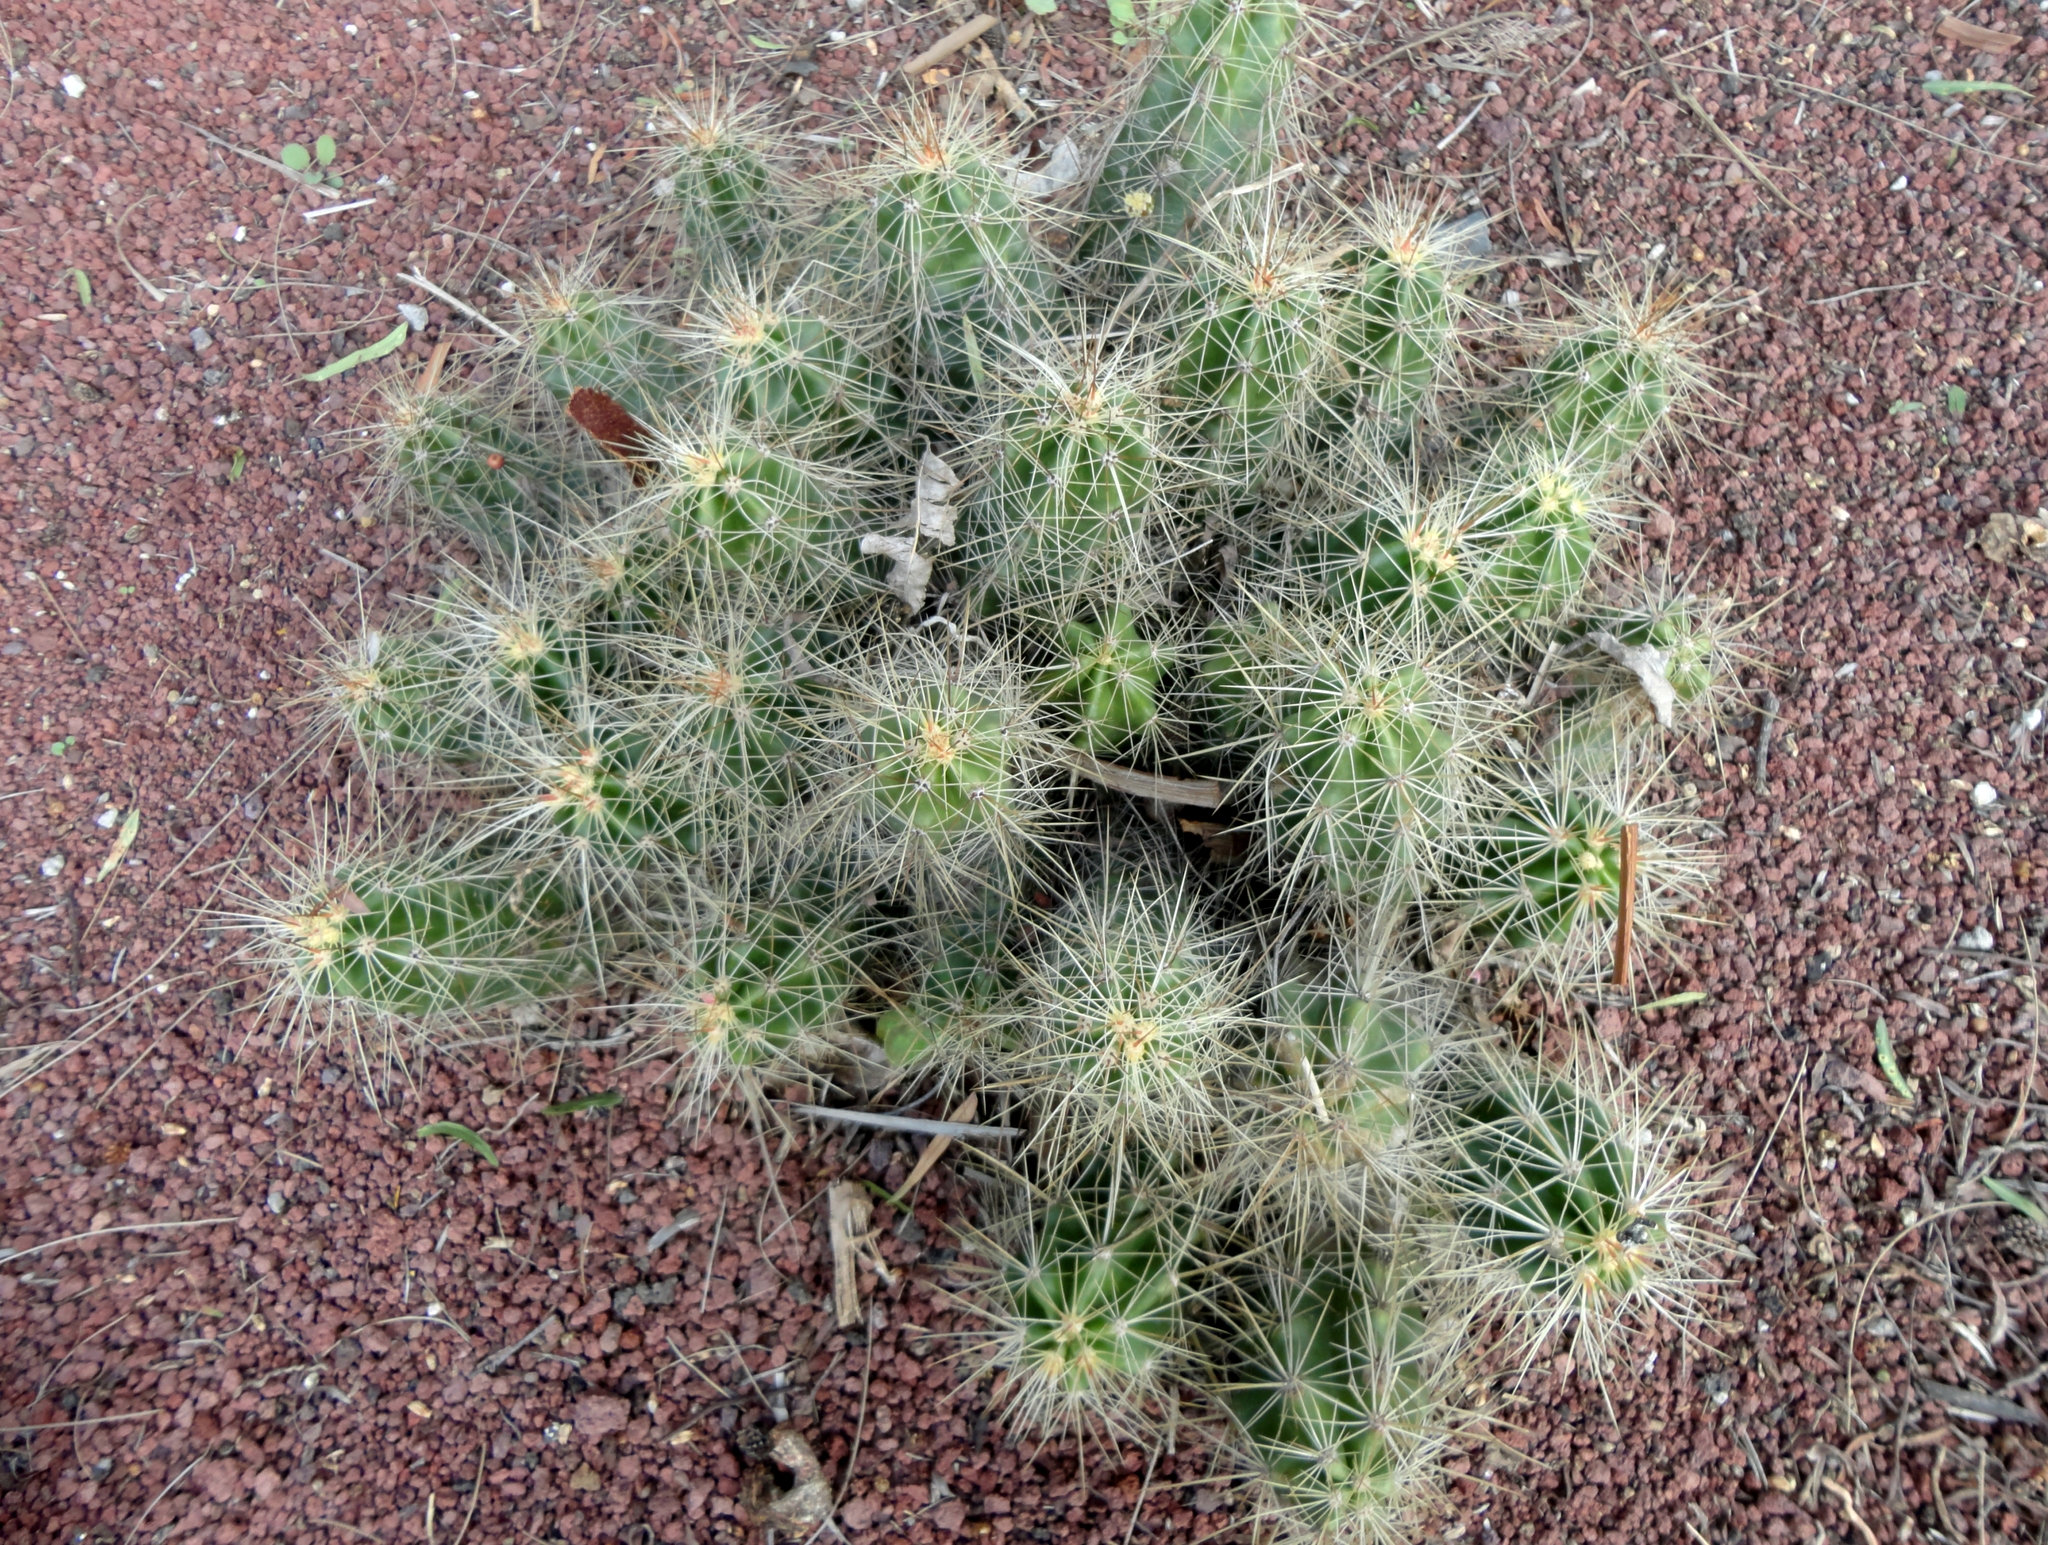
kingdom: Plantae
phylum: Tracheophyta
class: Magnoliopsida
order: Caryophyllales
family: Cactaceae
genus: Echinocereus
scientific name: Echinocereus cinerascens
